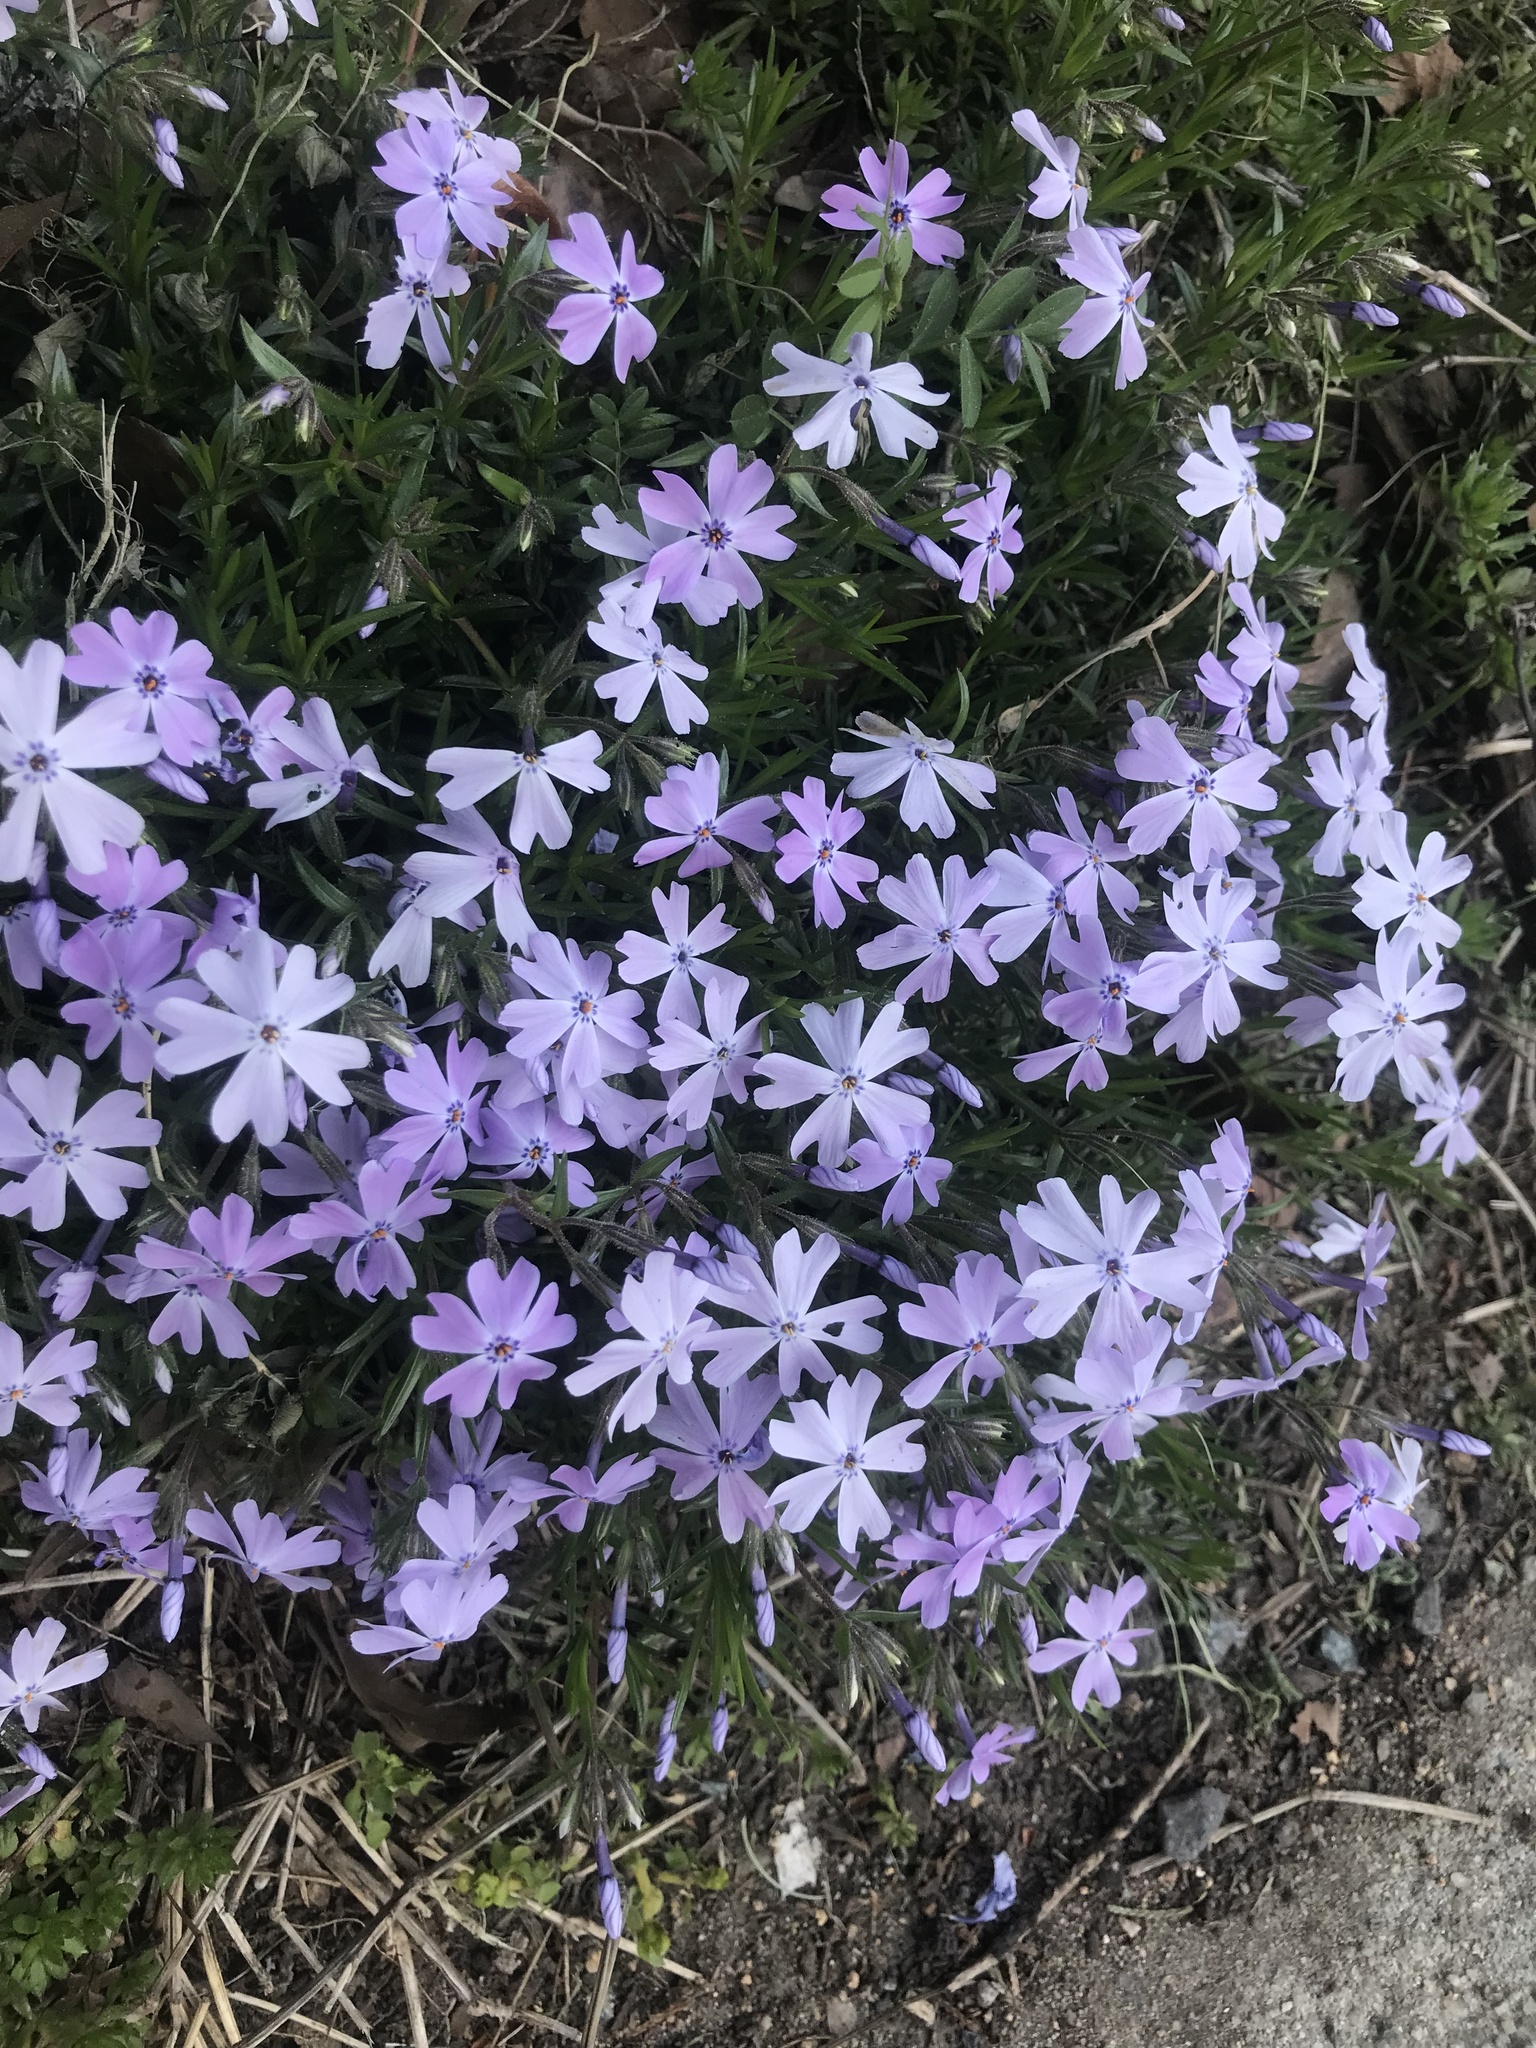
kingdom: Plantae
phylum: Tracheophyta
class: Magnoliopsida
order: Ericales
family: Polemoniaceae
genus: Phlox
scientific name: Phlox subulata
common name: Moss phlox
